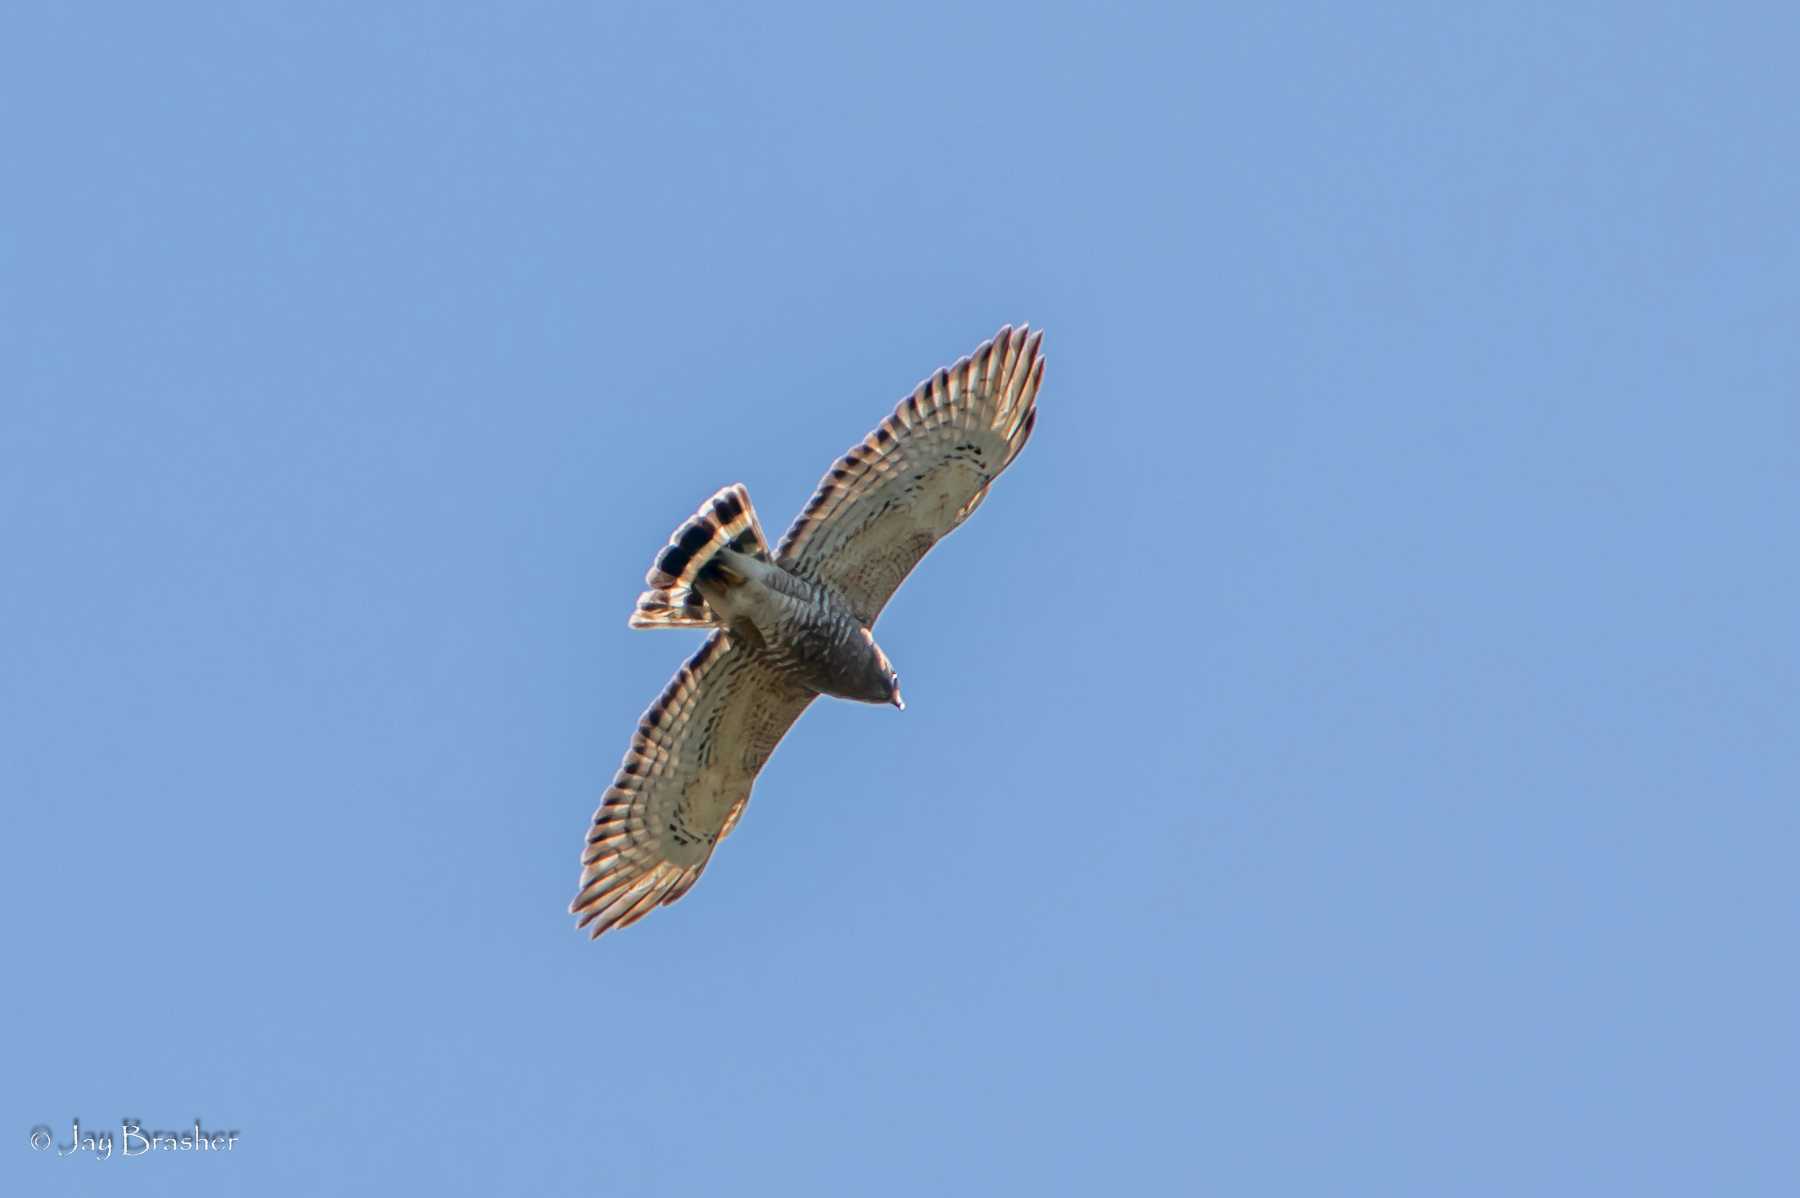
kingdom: Animalia
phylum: Chordata
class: Aves
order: Accipitriformes
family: Accipitridae
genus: Buteo
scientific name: Buteo platypterus
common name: Broad-winged hawk
